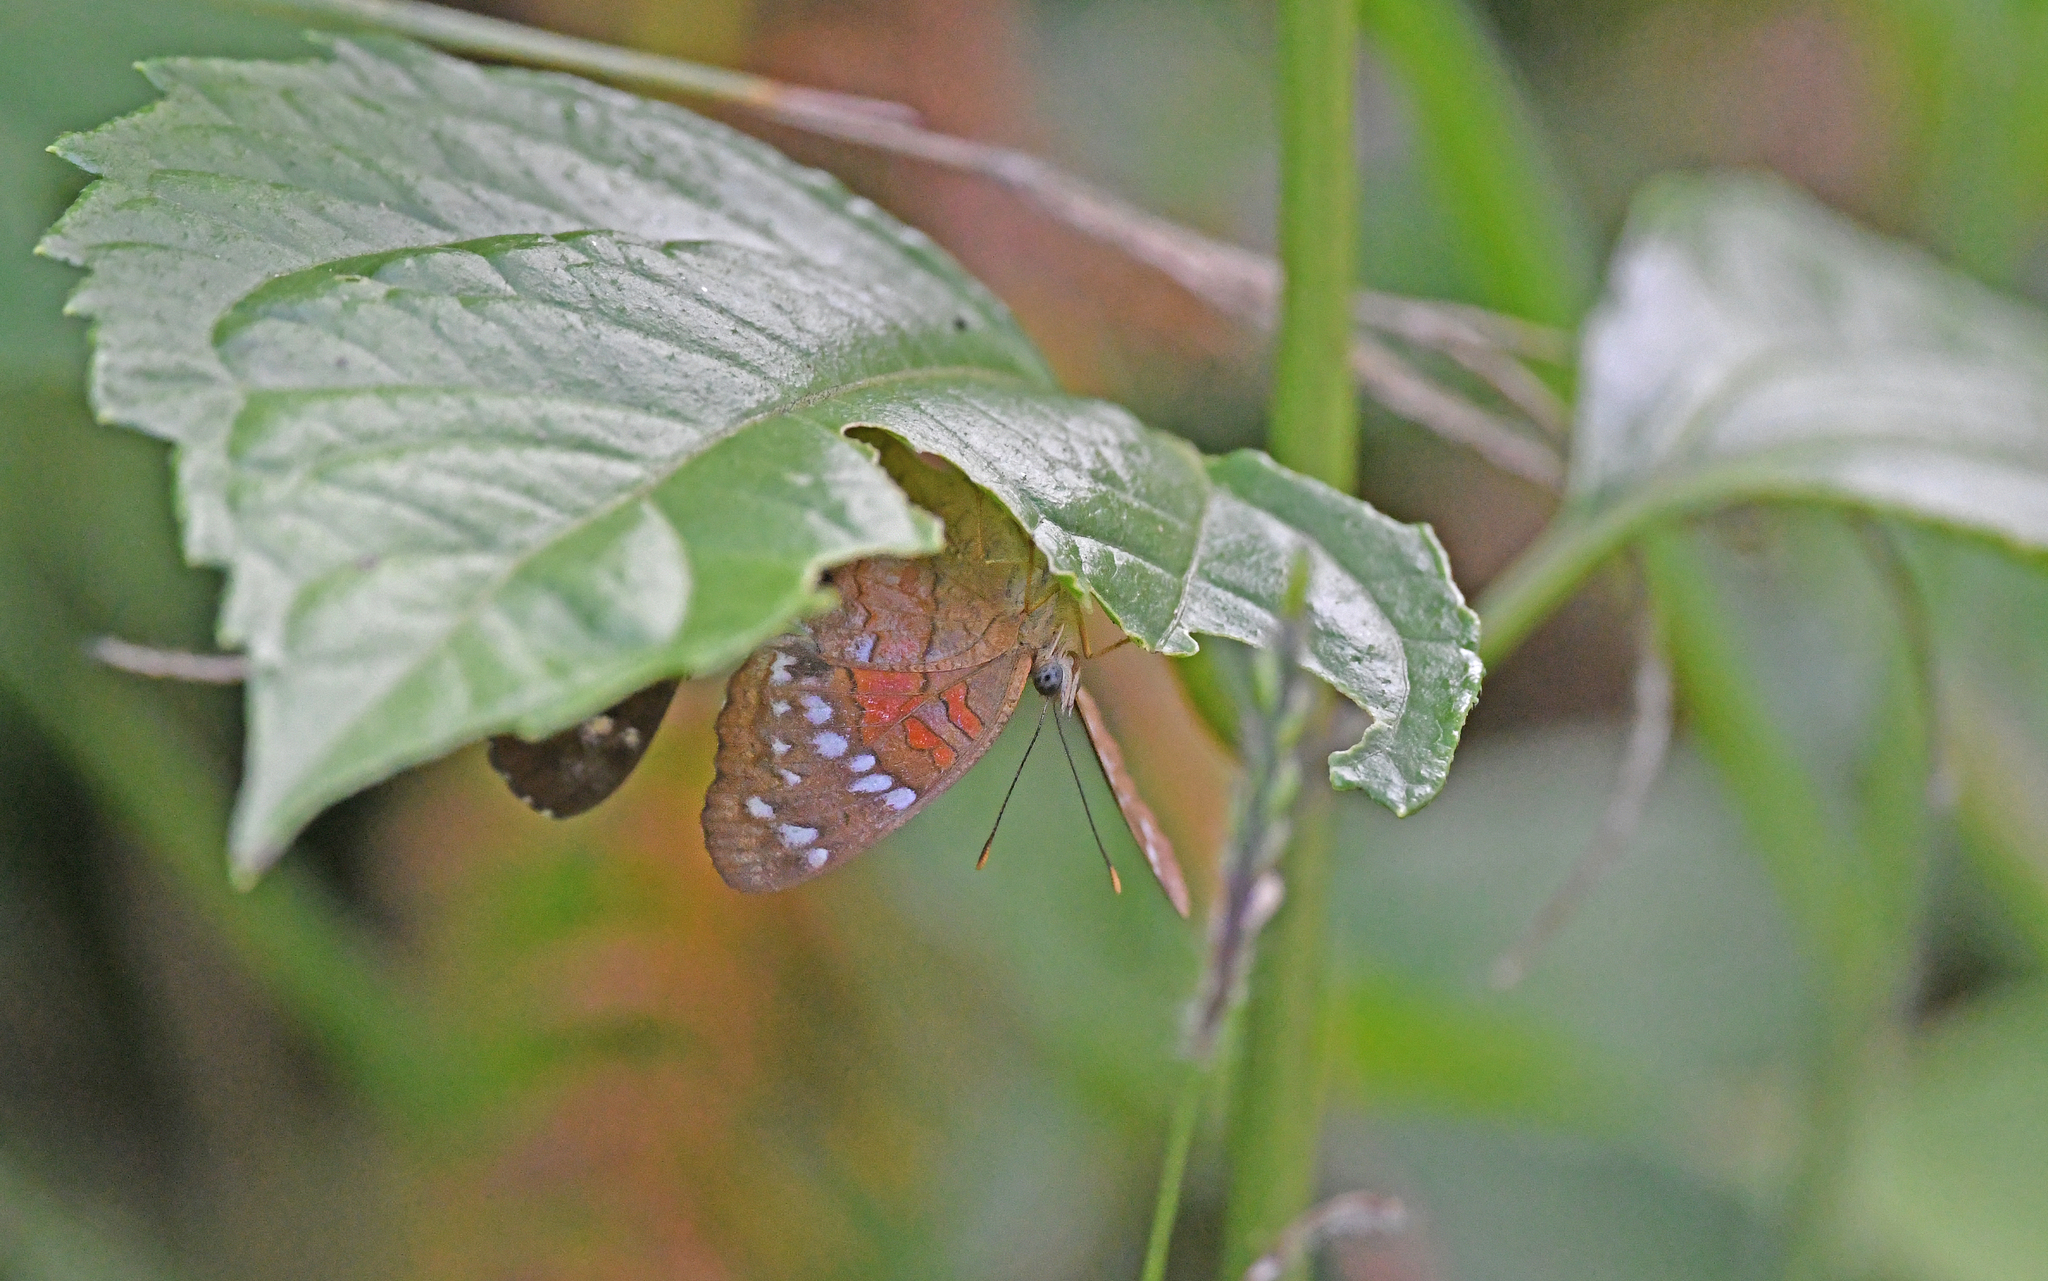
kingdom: Animalia
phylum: Arthropoda
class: Insecta
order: Lepidoptera
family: Nymphalidae
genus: Anartia
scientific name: Anartia amathea
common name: Red peacock
